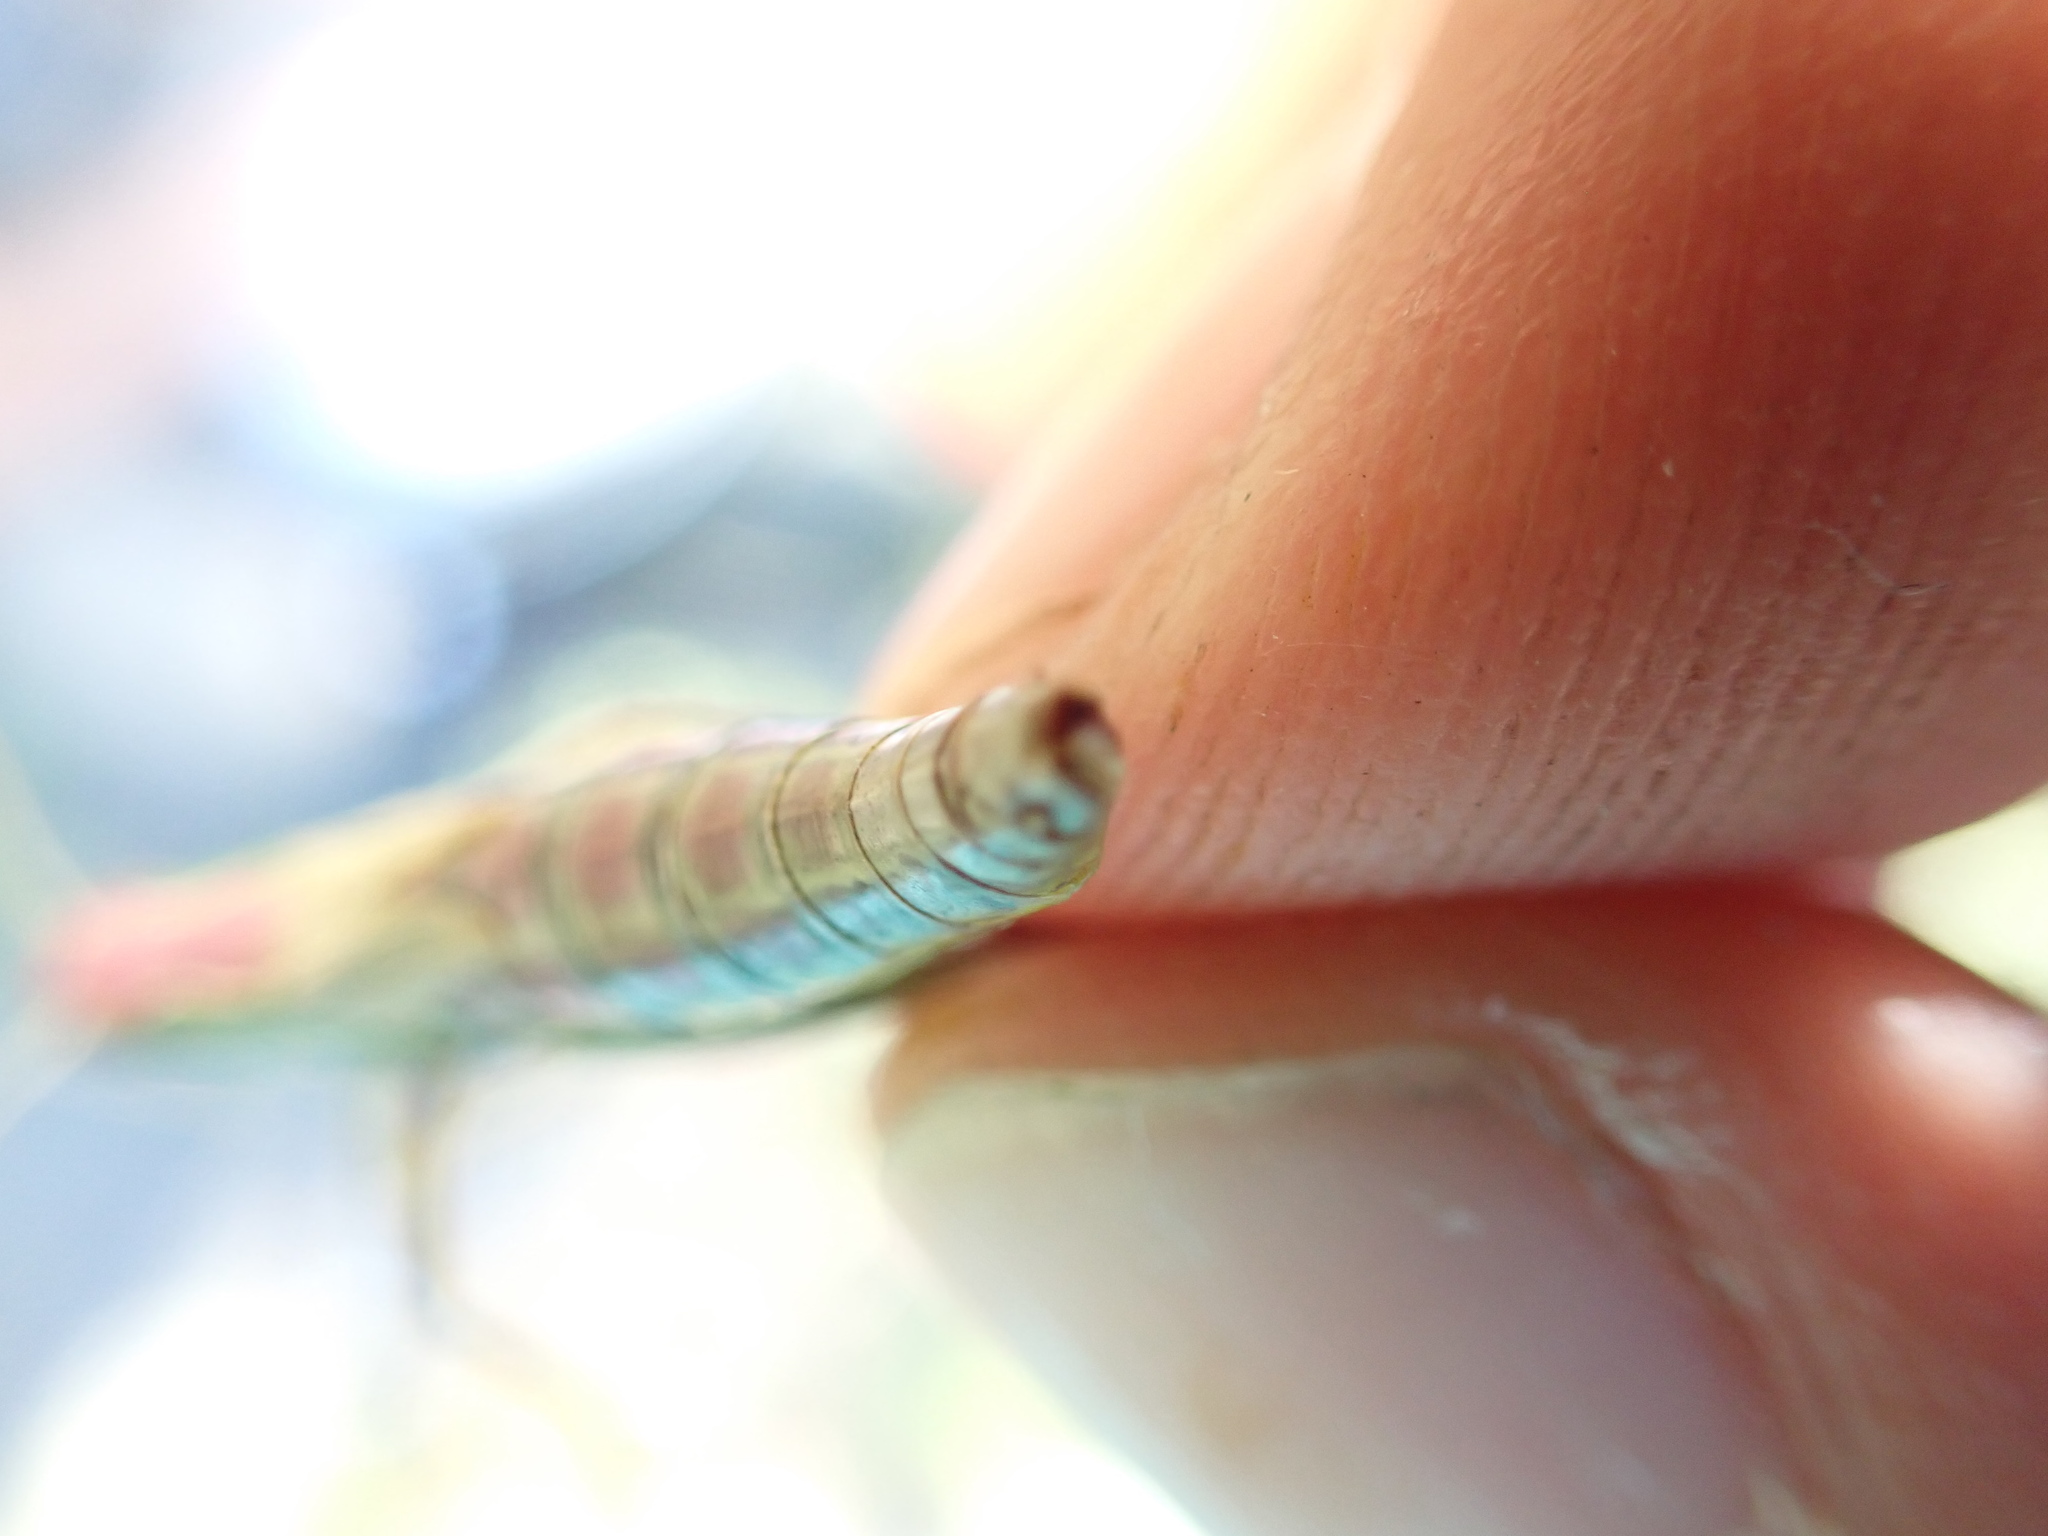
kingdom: Animalia
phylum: Arthropoda
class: Insecta
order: Orthoptera
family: Acrididae
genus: Pseudochorthippus
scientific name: Pseudochorthippus parallelus
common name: Meadow grasshopper
